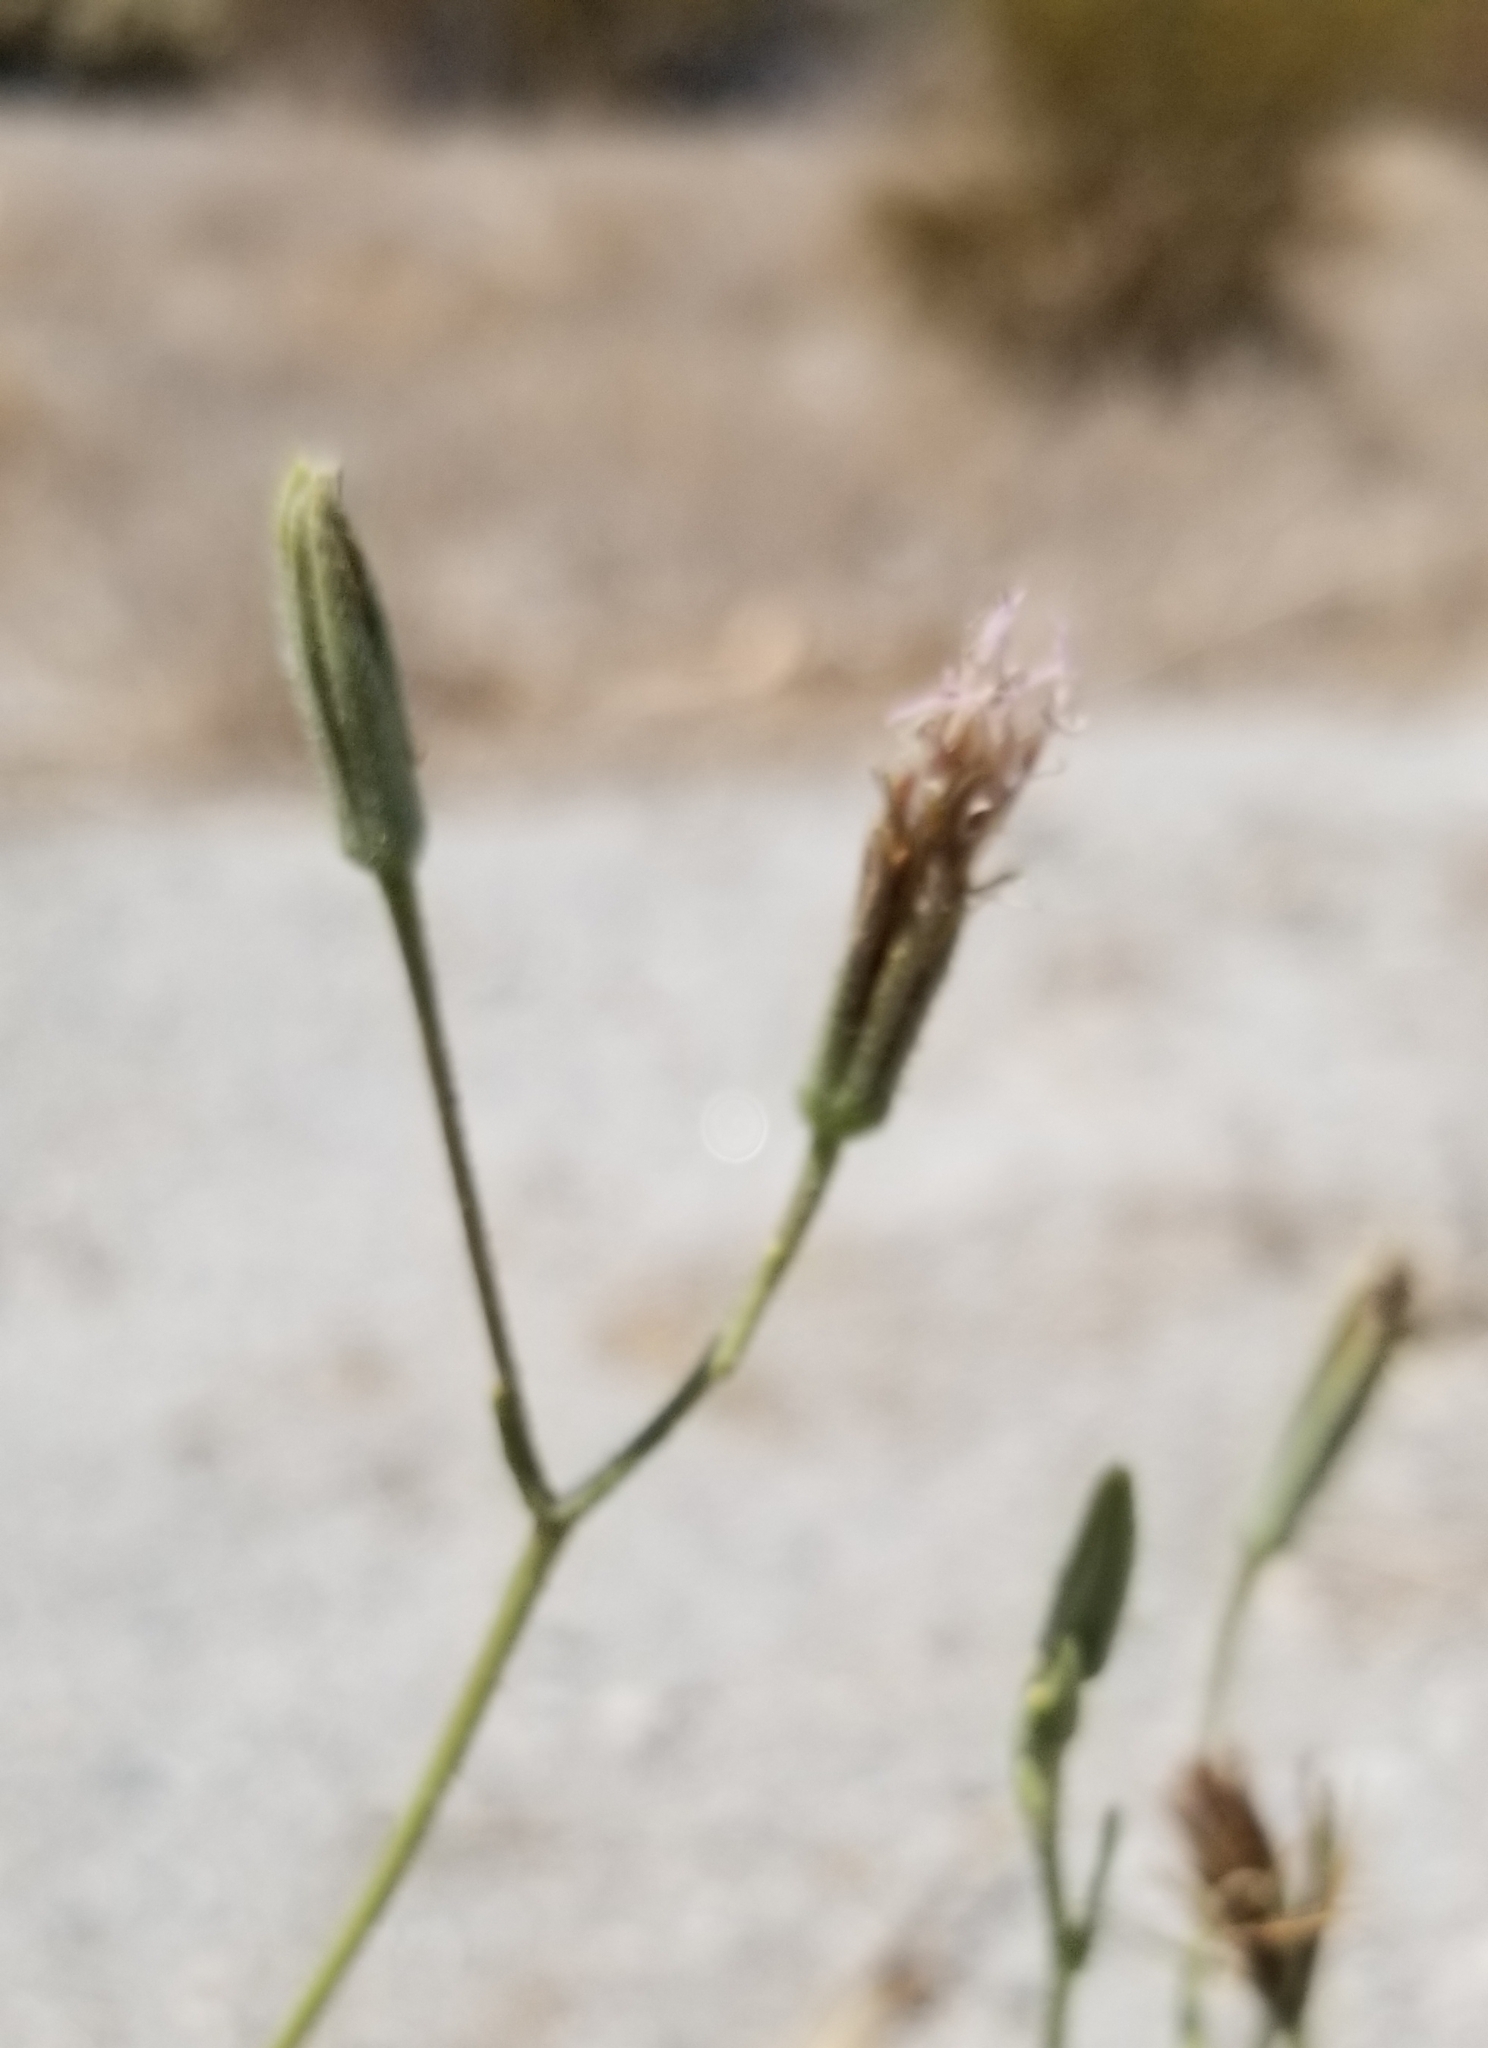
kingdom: Plantae
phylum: Tracheophyta
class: Magnoliopsida
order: Asterales
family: Asteraceae
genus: Palafoxia
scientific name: Palafoxia arida
